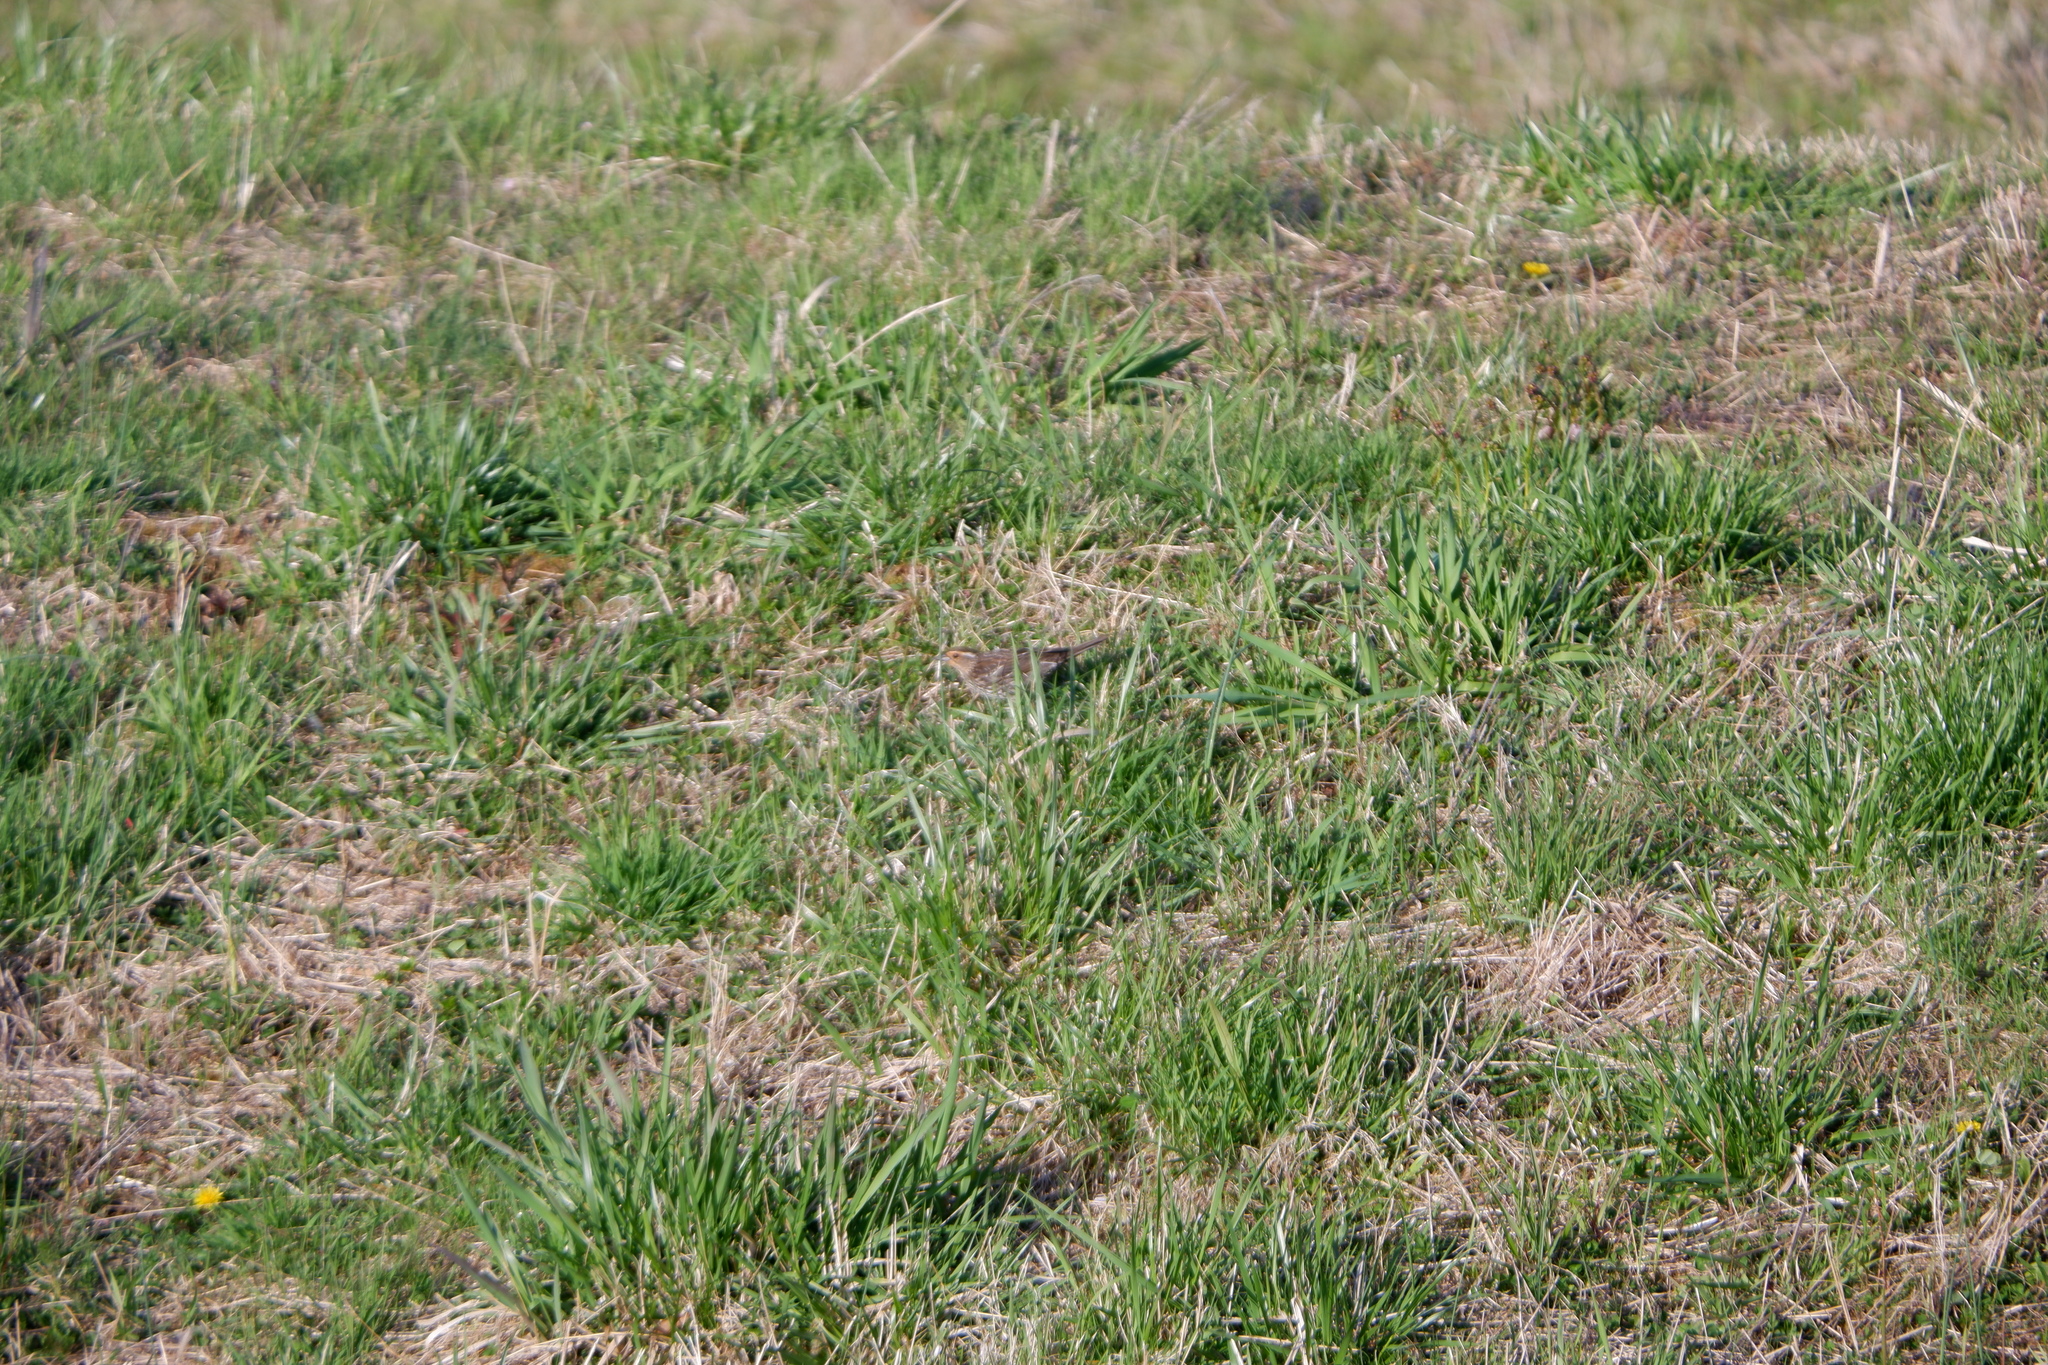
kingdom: Animalia
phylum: Chordata
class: Aves
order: Passeriformes
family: Icteridae
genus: Agelaius
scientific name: Agelaius phoeniceus
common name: Red-winged blackbird
